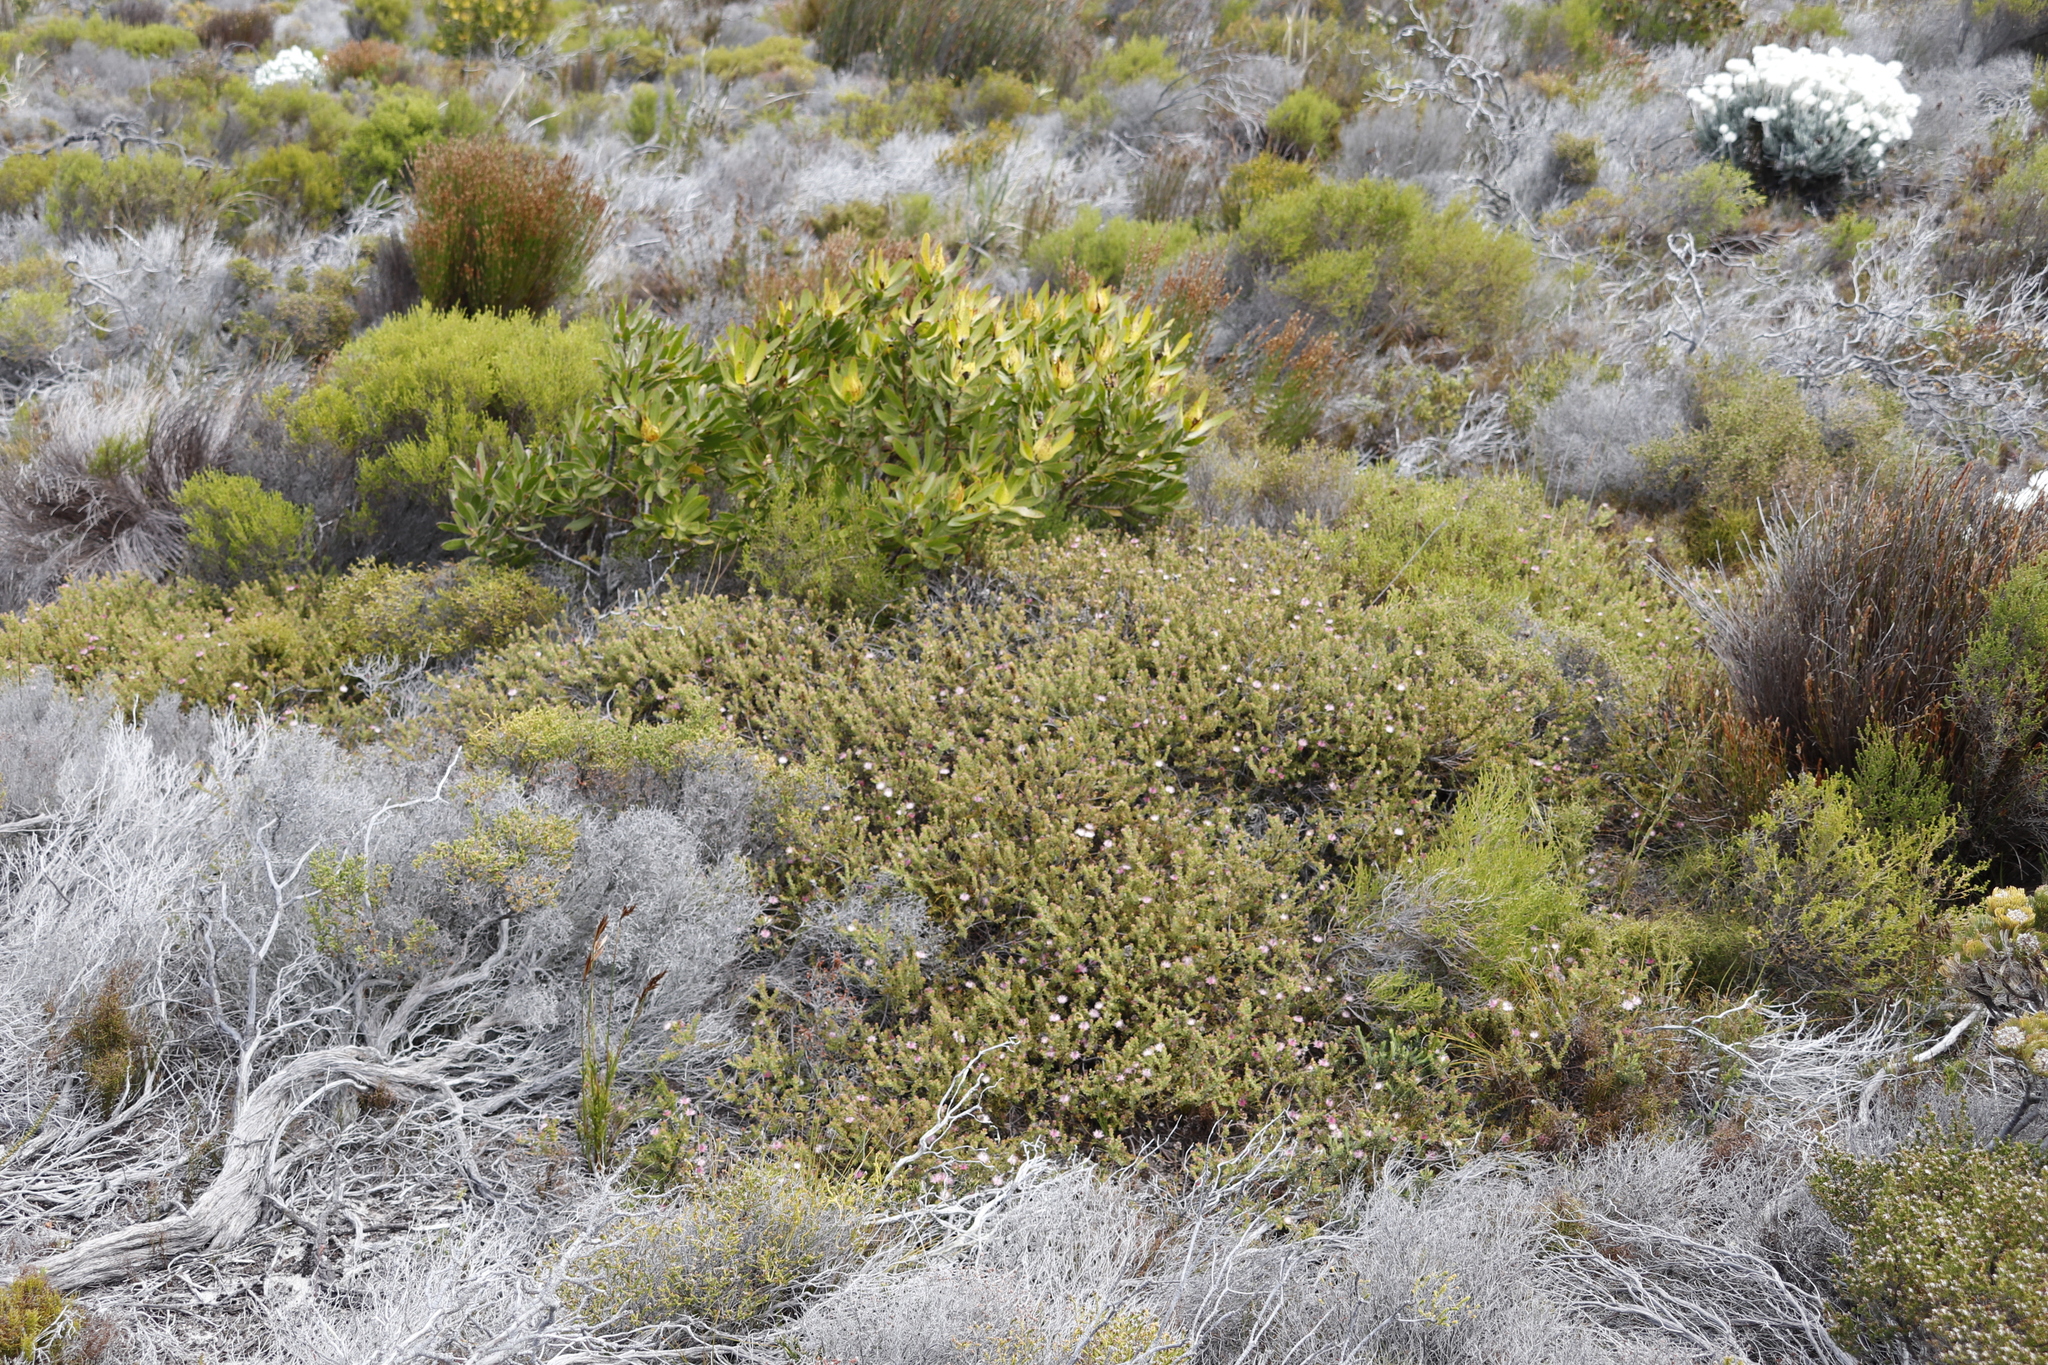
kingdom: Plantae
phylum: Tracheophyta
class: Magnoliopsida
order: Proteales
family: Proteaceae
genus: Diastella
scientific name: Diastella divaricata
